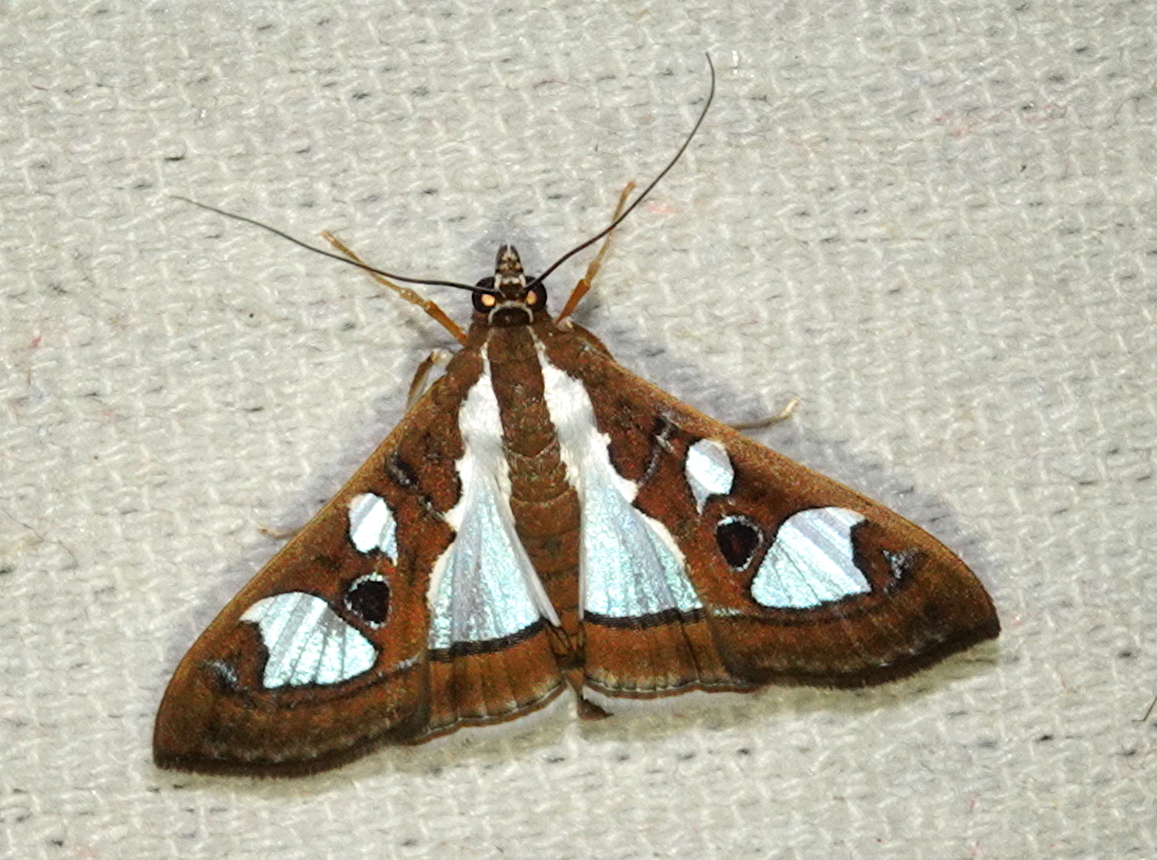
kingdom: Animalia
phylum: Arthropoda
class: Insecta
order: Lepidoptera
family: Crambidae
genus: Glyphodes
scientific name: Glyphodes bivitralis
